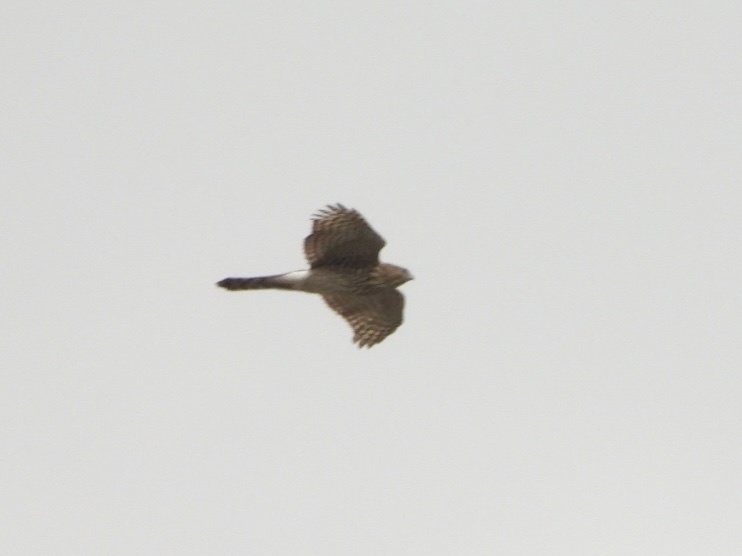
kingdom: Animalia
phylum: Chordata
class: Aves
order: Accipitriformes
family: Accipitridae
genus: Accipiter
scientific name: Accipiter cooperii
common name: Cooper's hawk
